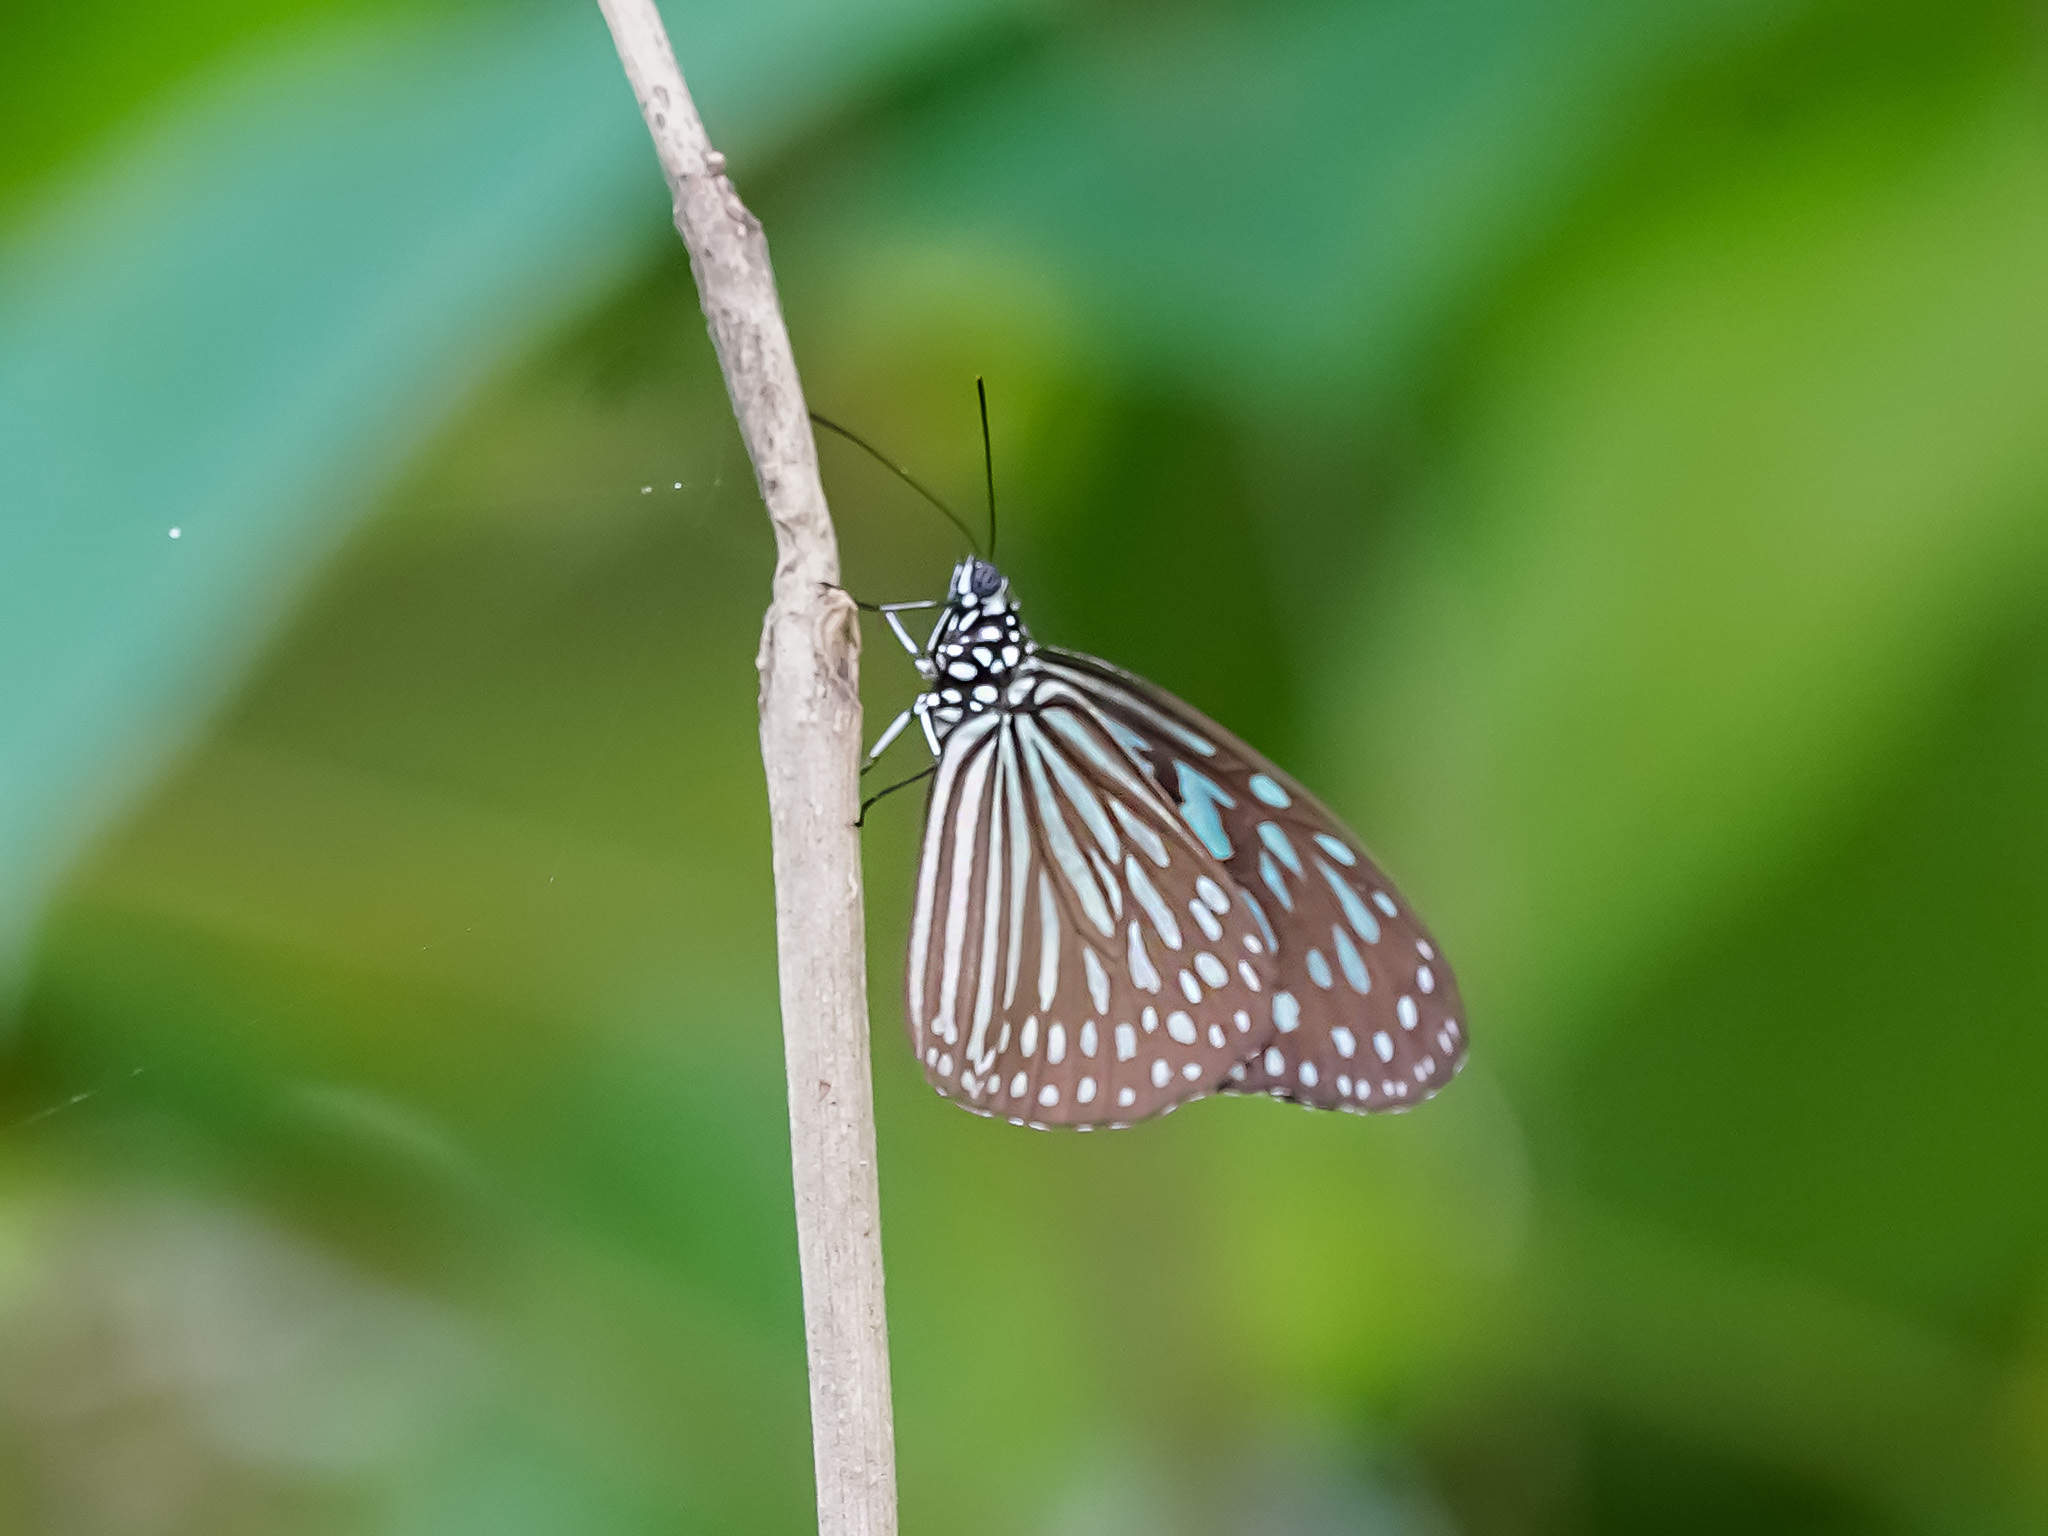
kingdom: Animalia
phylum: Arthropoda
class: Insecta
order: Lepidoptera
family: Nymphalidae
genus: Ideopsis
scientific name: Ideopsis vulgaris
